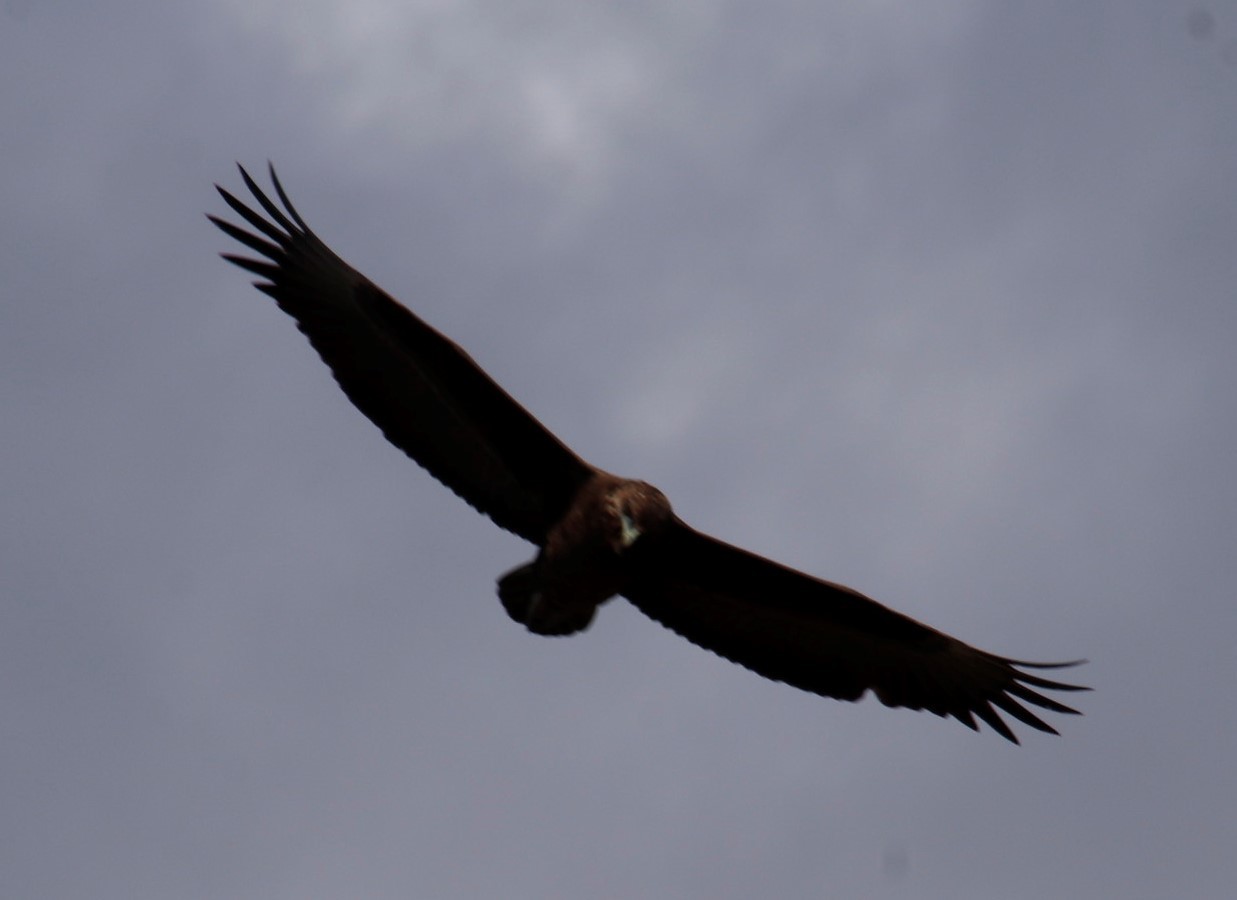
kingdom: Animalia
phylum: Chordata
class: Aves
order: Accipitriformes
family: Accipitridae
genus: Terathopius
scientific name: Terathopius ecaudatus
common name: Bateleur
